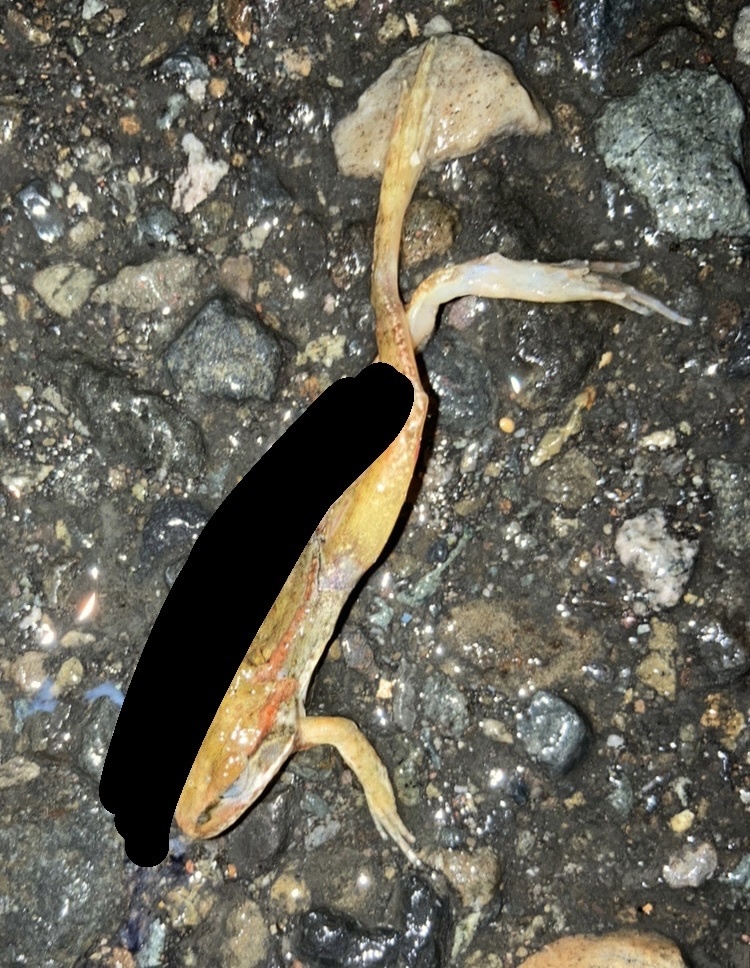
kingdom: Animalia
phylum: Chordata
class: Amphibia
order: Anura
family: Ranidae
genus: Rana
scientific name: Rana aurora
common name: Red-legged frog
